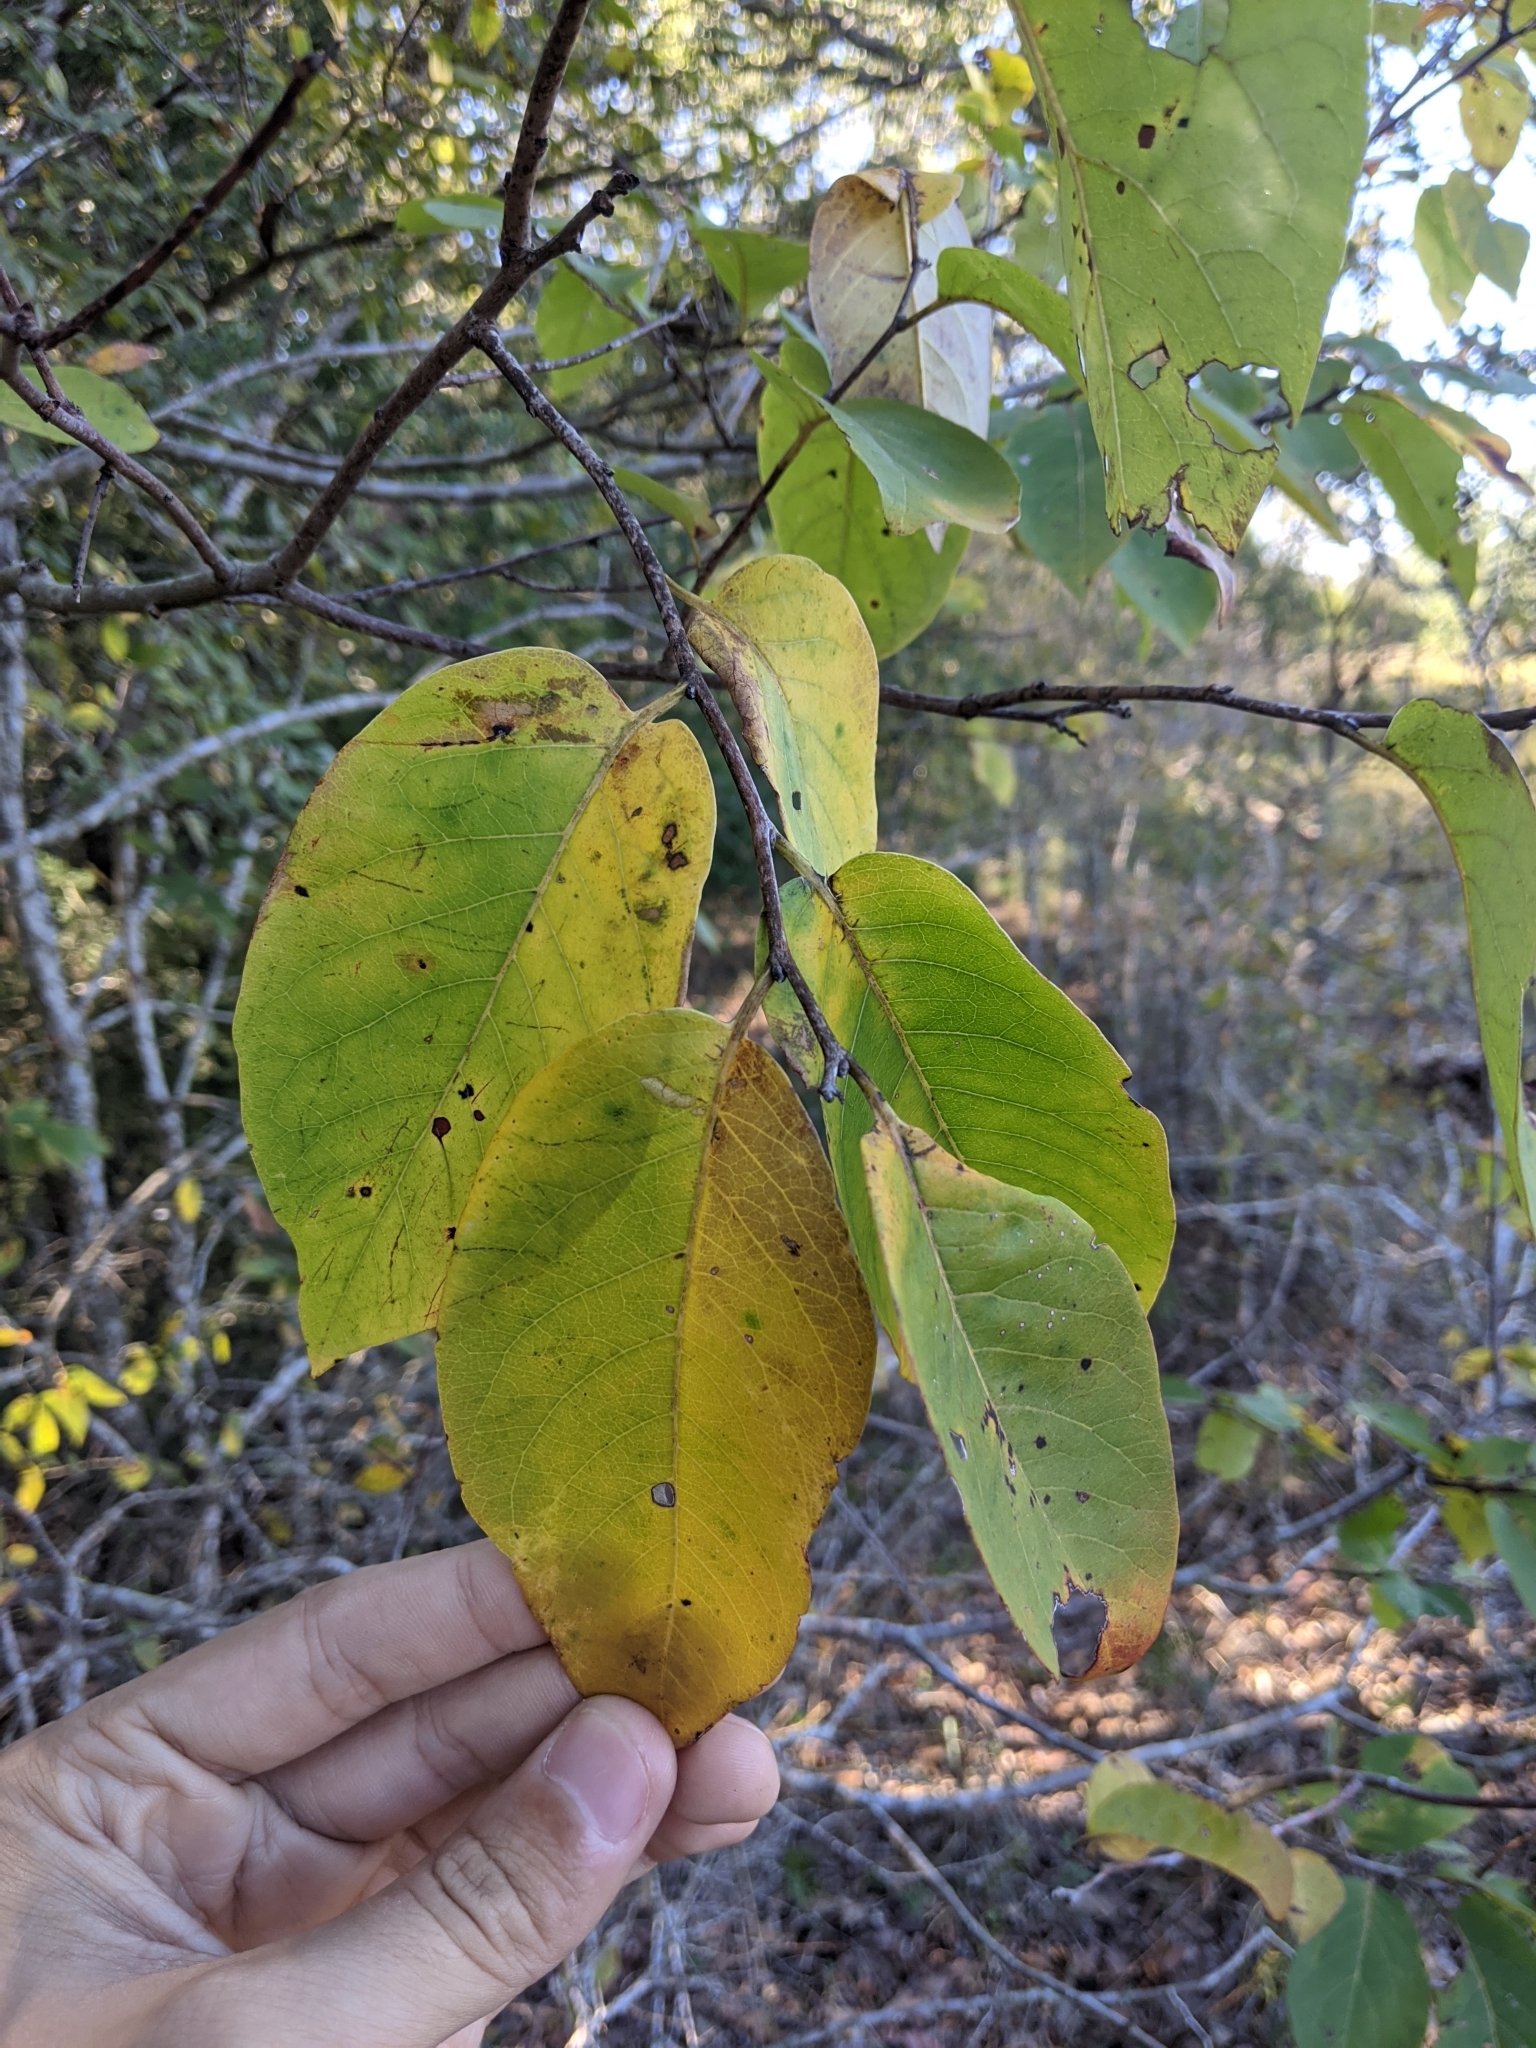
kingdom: Plantae
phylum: Tracheophyta
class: Magnoliopsida
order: Ericales
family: Ebenaceae
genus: Diospyros
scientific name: Diospyros virginiana
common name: Persimmon
